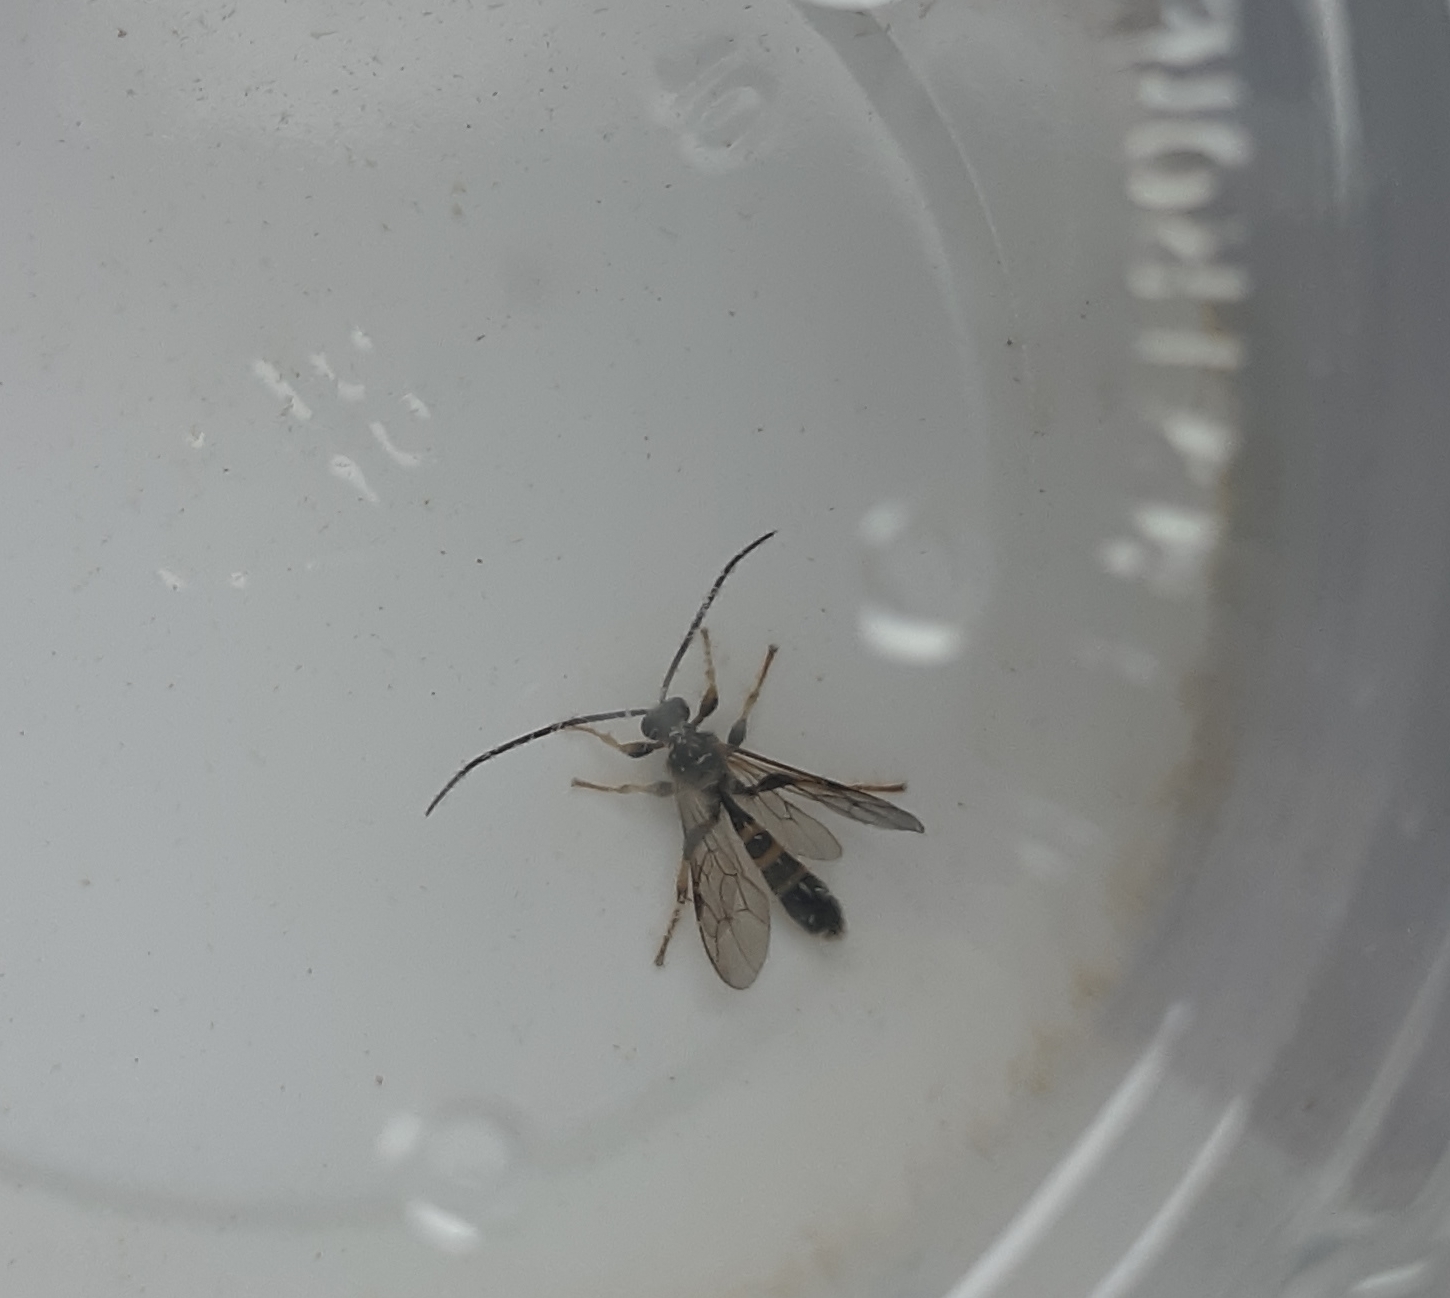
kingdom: Animalia
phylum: Arthropoda
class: Insecta
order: Hymenoptera
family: Ichneumonidae
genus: Colpotrochia
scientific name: Colpotrochia trifasciata
